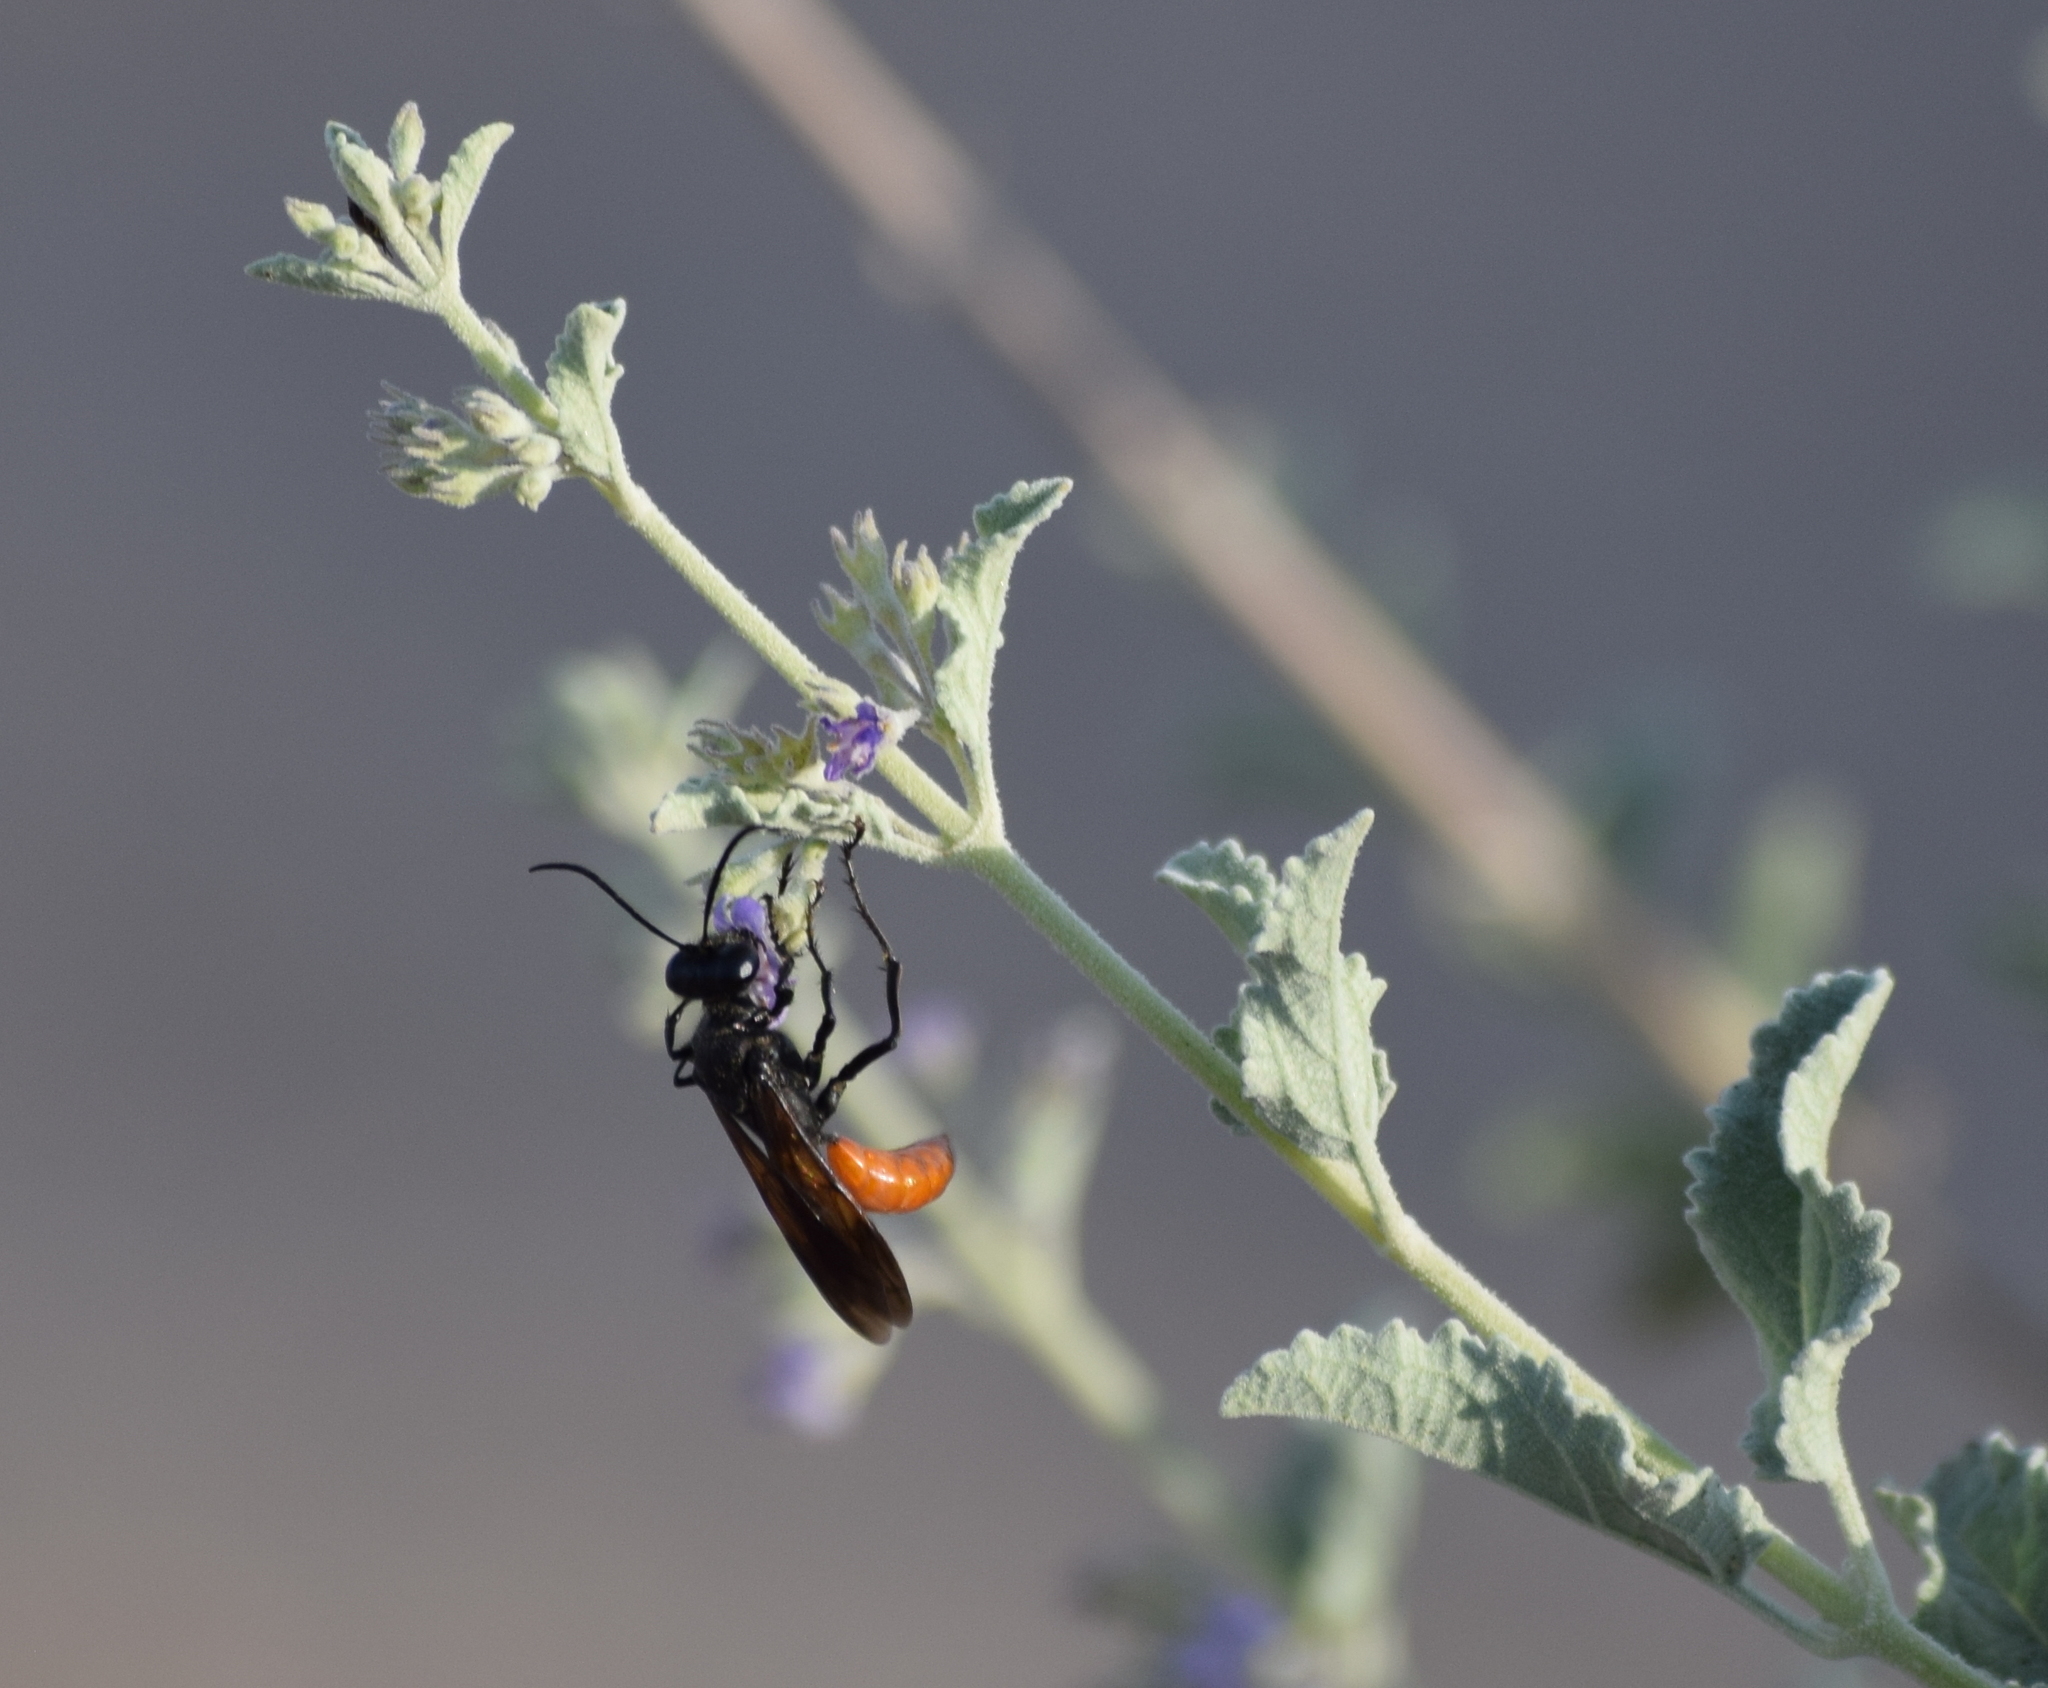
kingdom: Animalia
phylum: Arthropoda
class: Insecta
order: Hymenoptera
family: Sphecidae
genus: Sphex
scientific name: Sphex lucae
